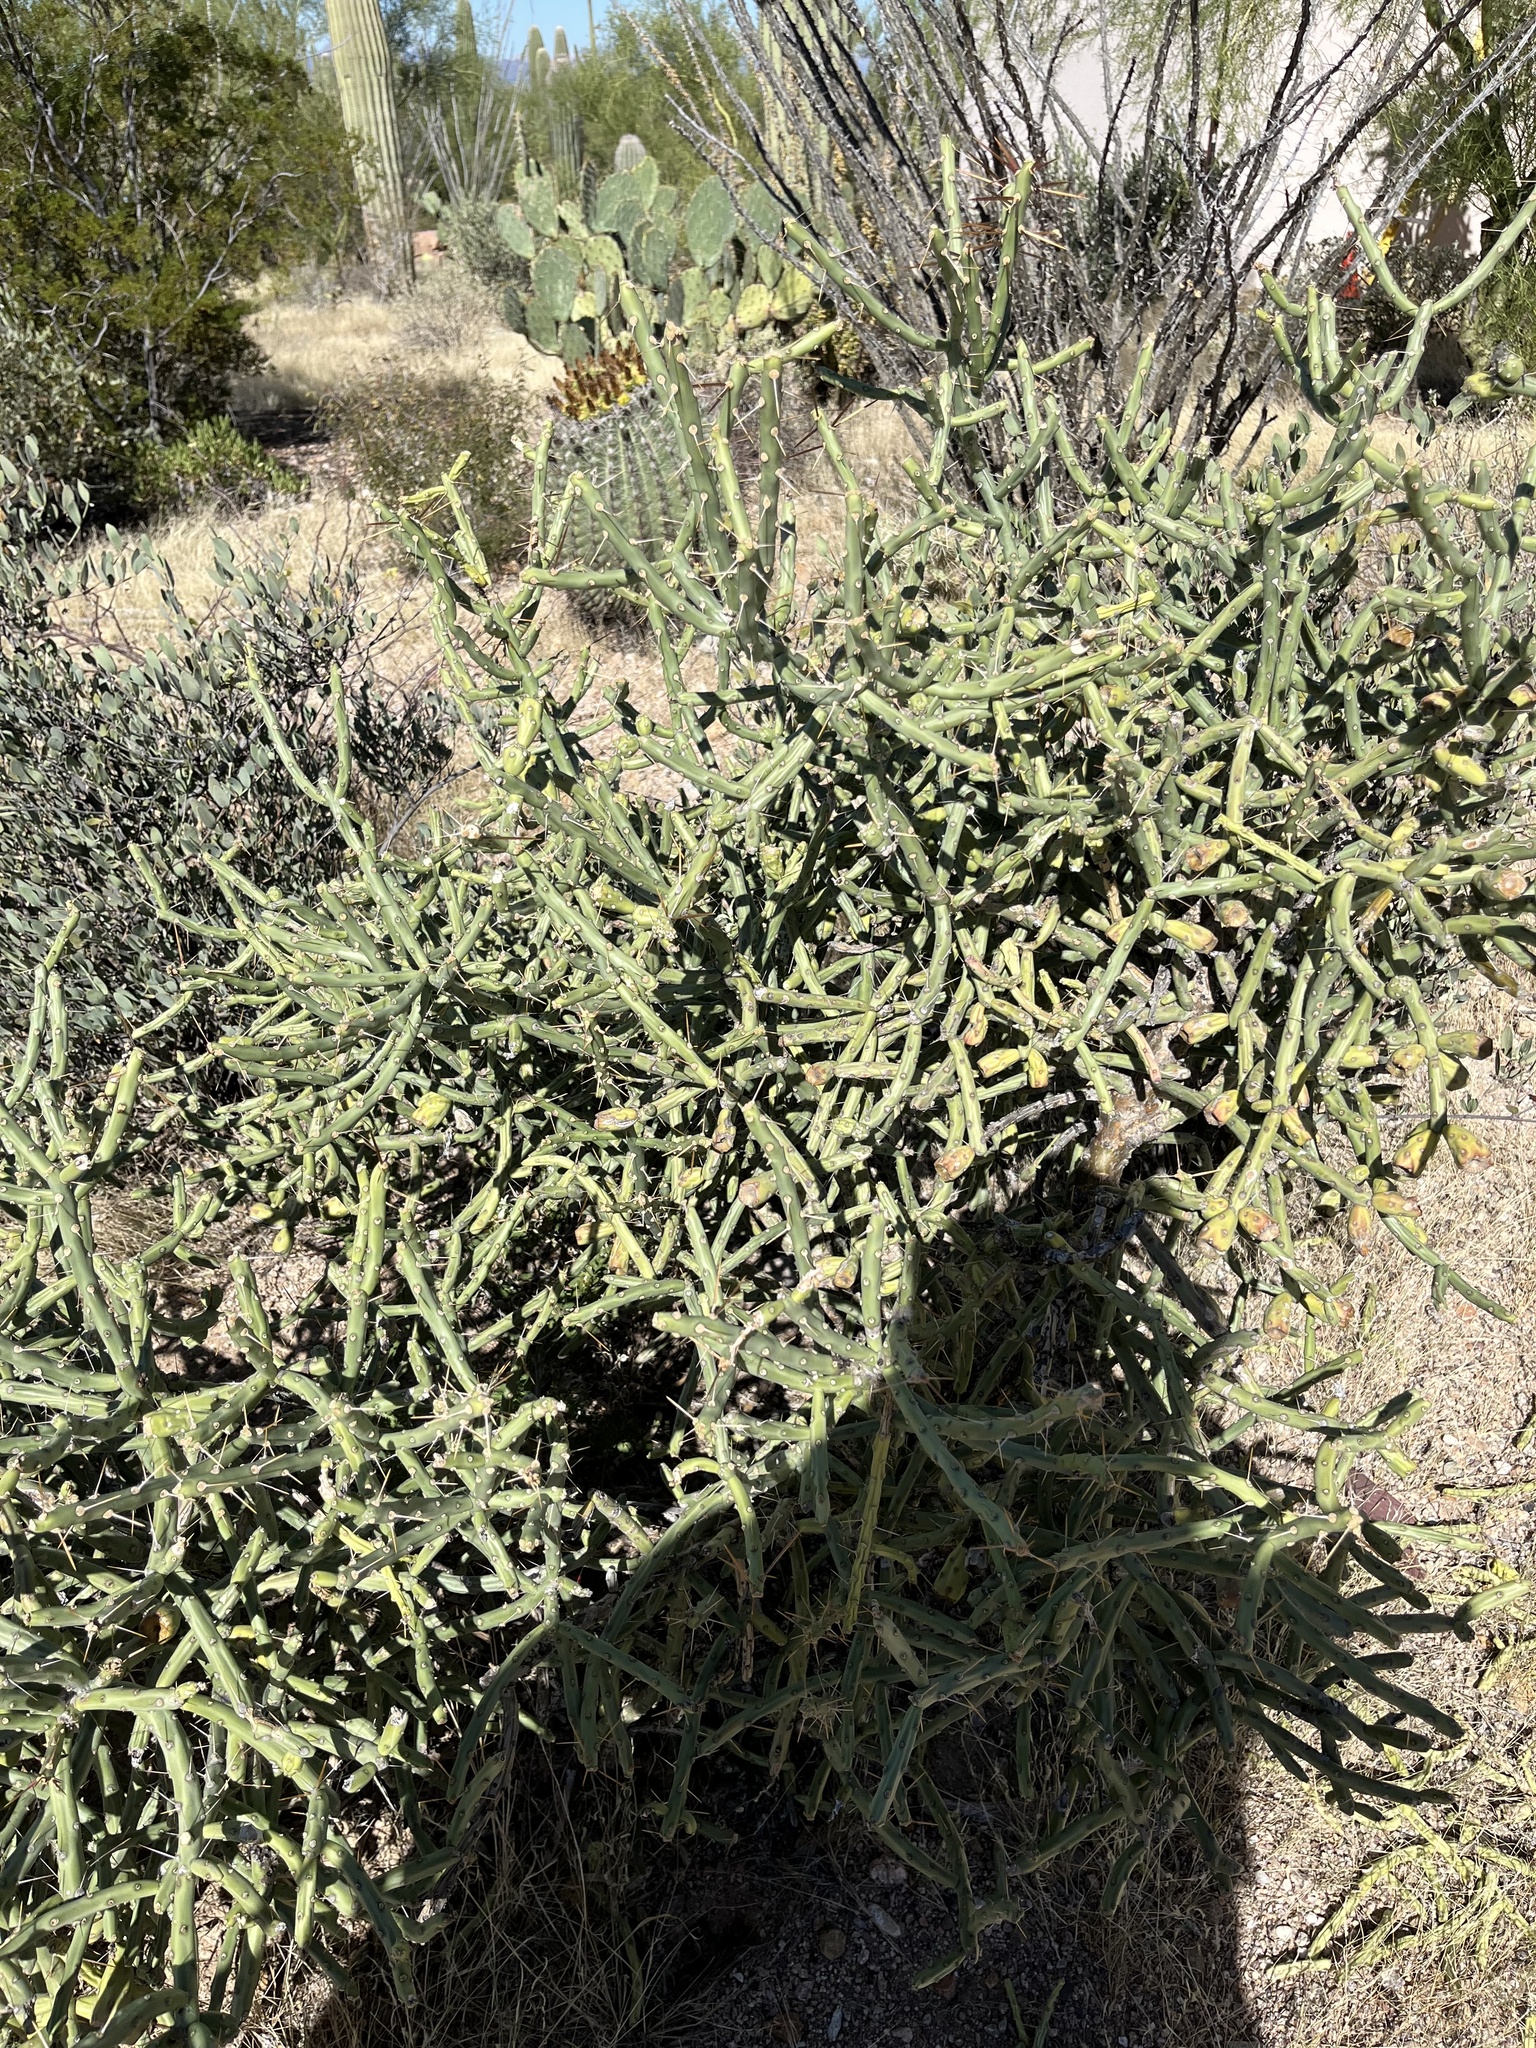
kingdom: Plantae
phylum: Tracheophyta
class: Magnoliopsida
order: Caryophyllales
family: Cactaceae
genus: Cylindropuntia
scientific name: Cylindropuntia arbuscula
